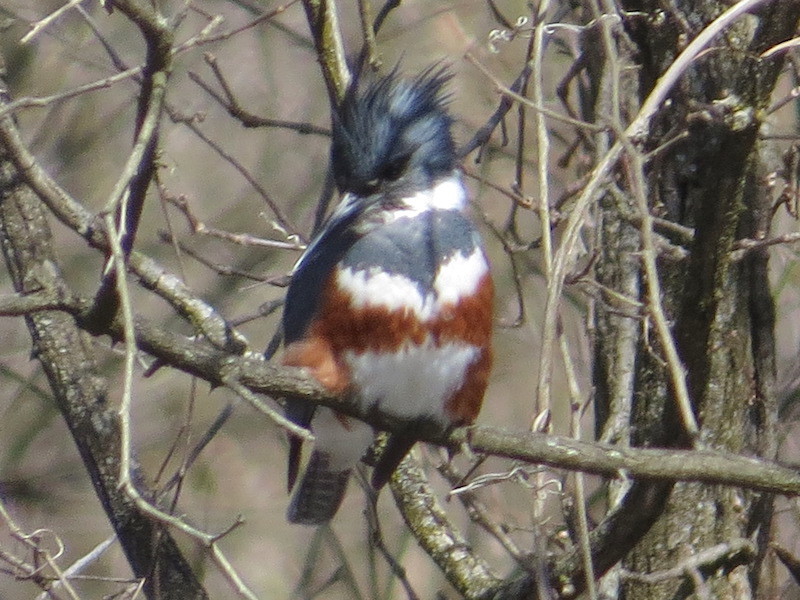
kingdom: Animalia
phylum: Chordata
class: Aves
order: Coraciiformes
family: Alcedinidae
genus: Megaceryle
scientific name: Megaceryle alcyon
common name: Belted kingfisher
